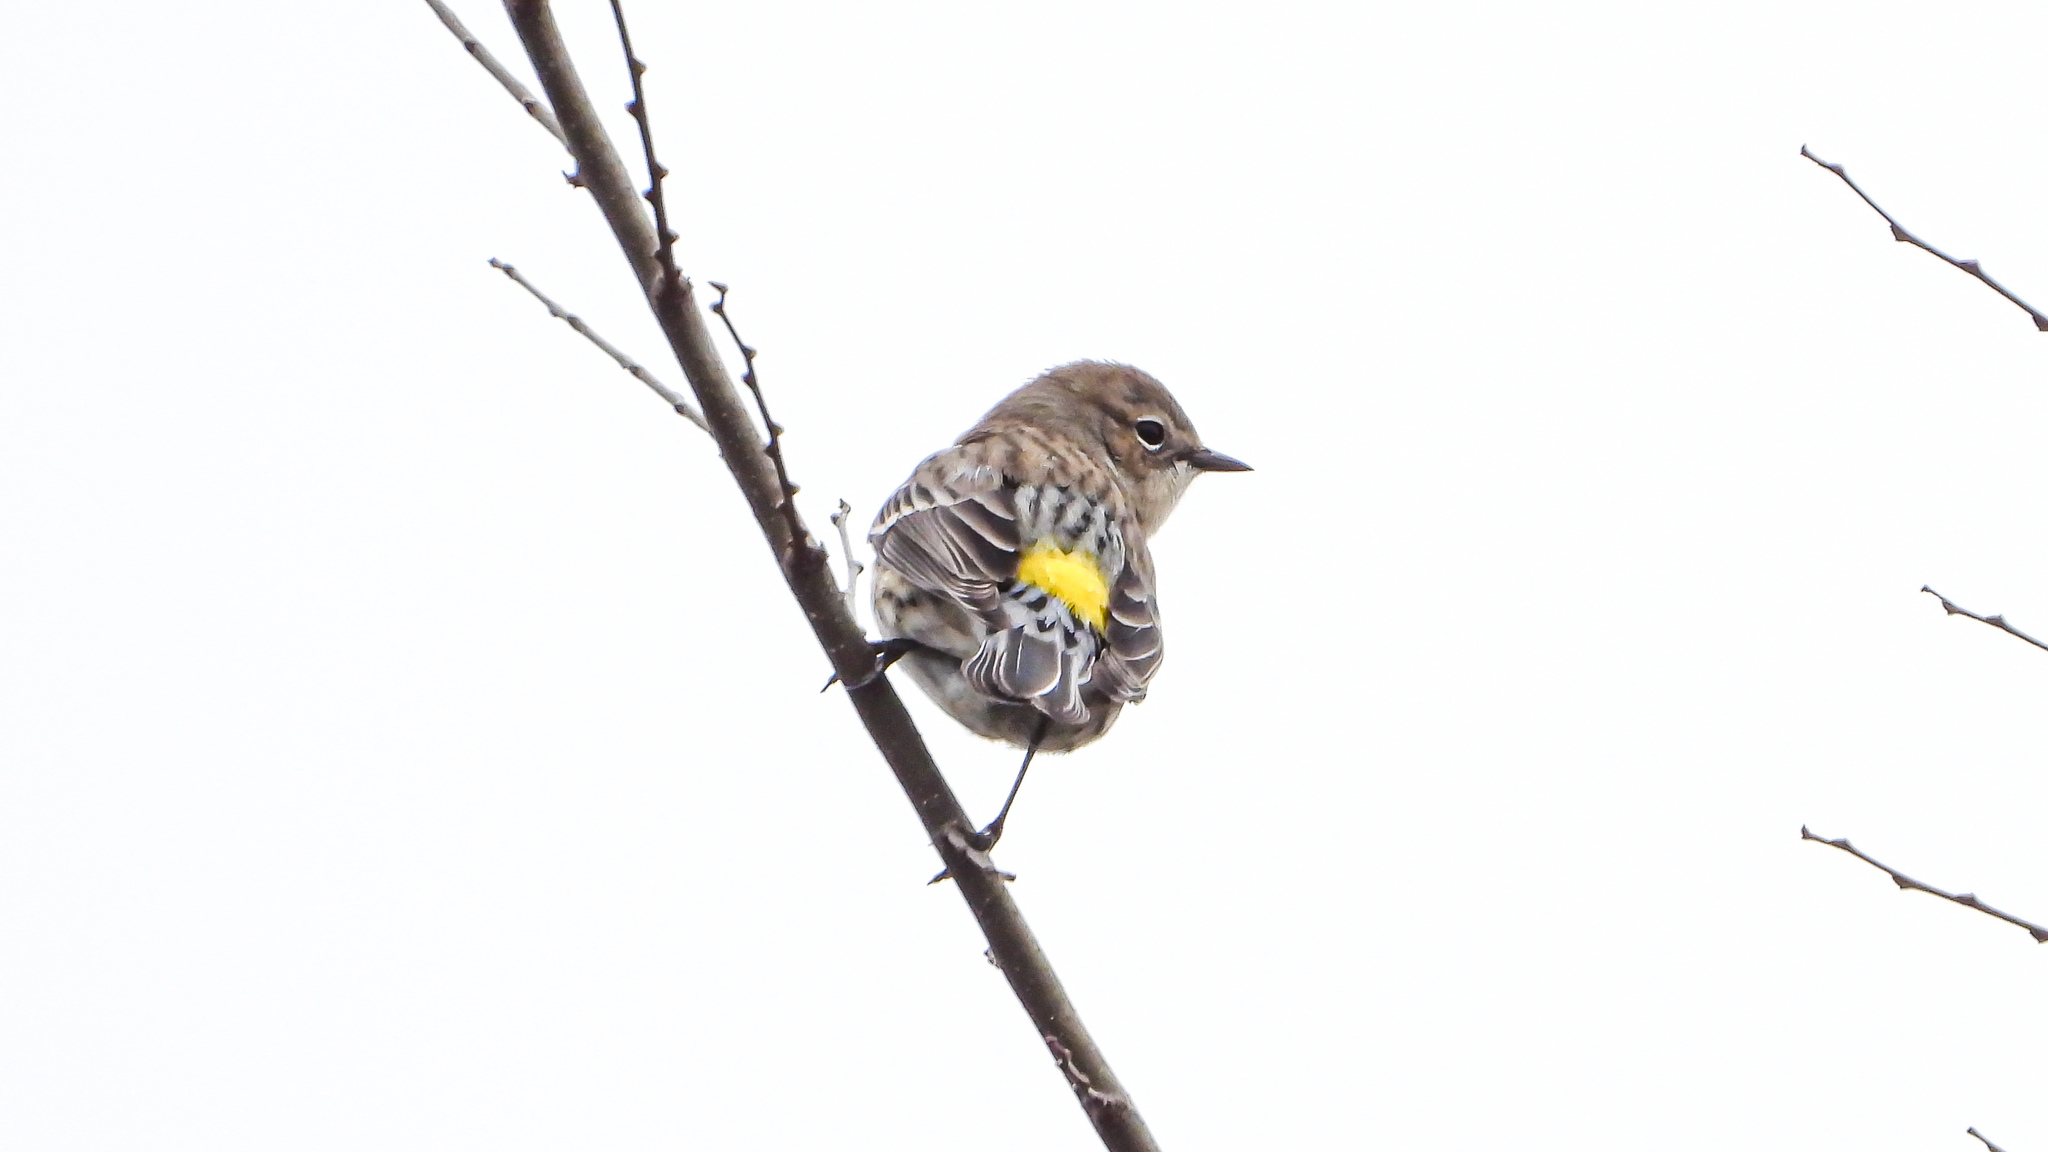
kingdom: Animalia
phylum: Chordata
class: Aves
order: Passeriformes
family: Parulidae
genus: Setophaga
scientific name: Setophaga coronata
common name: Myrtle warbler
